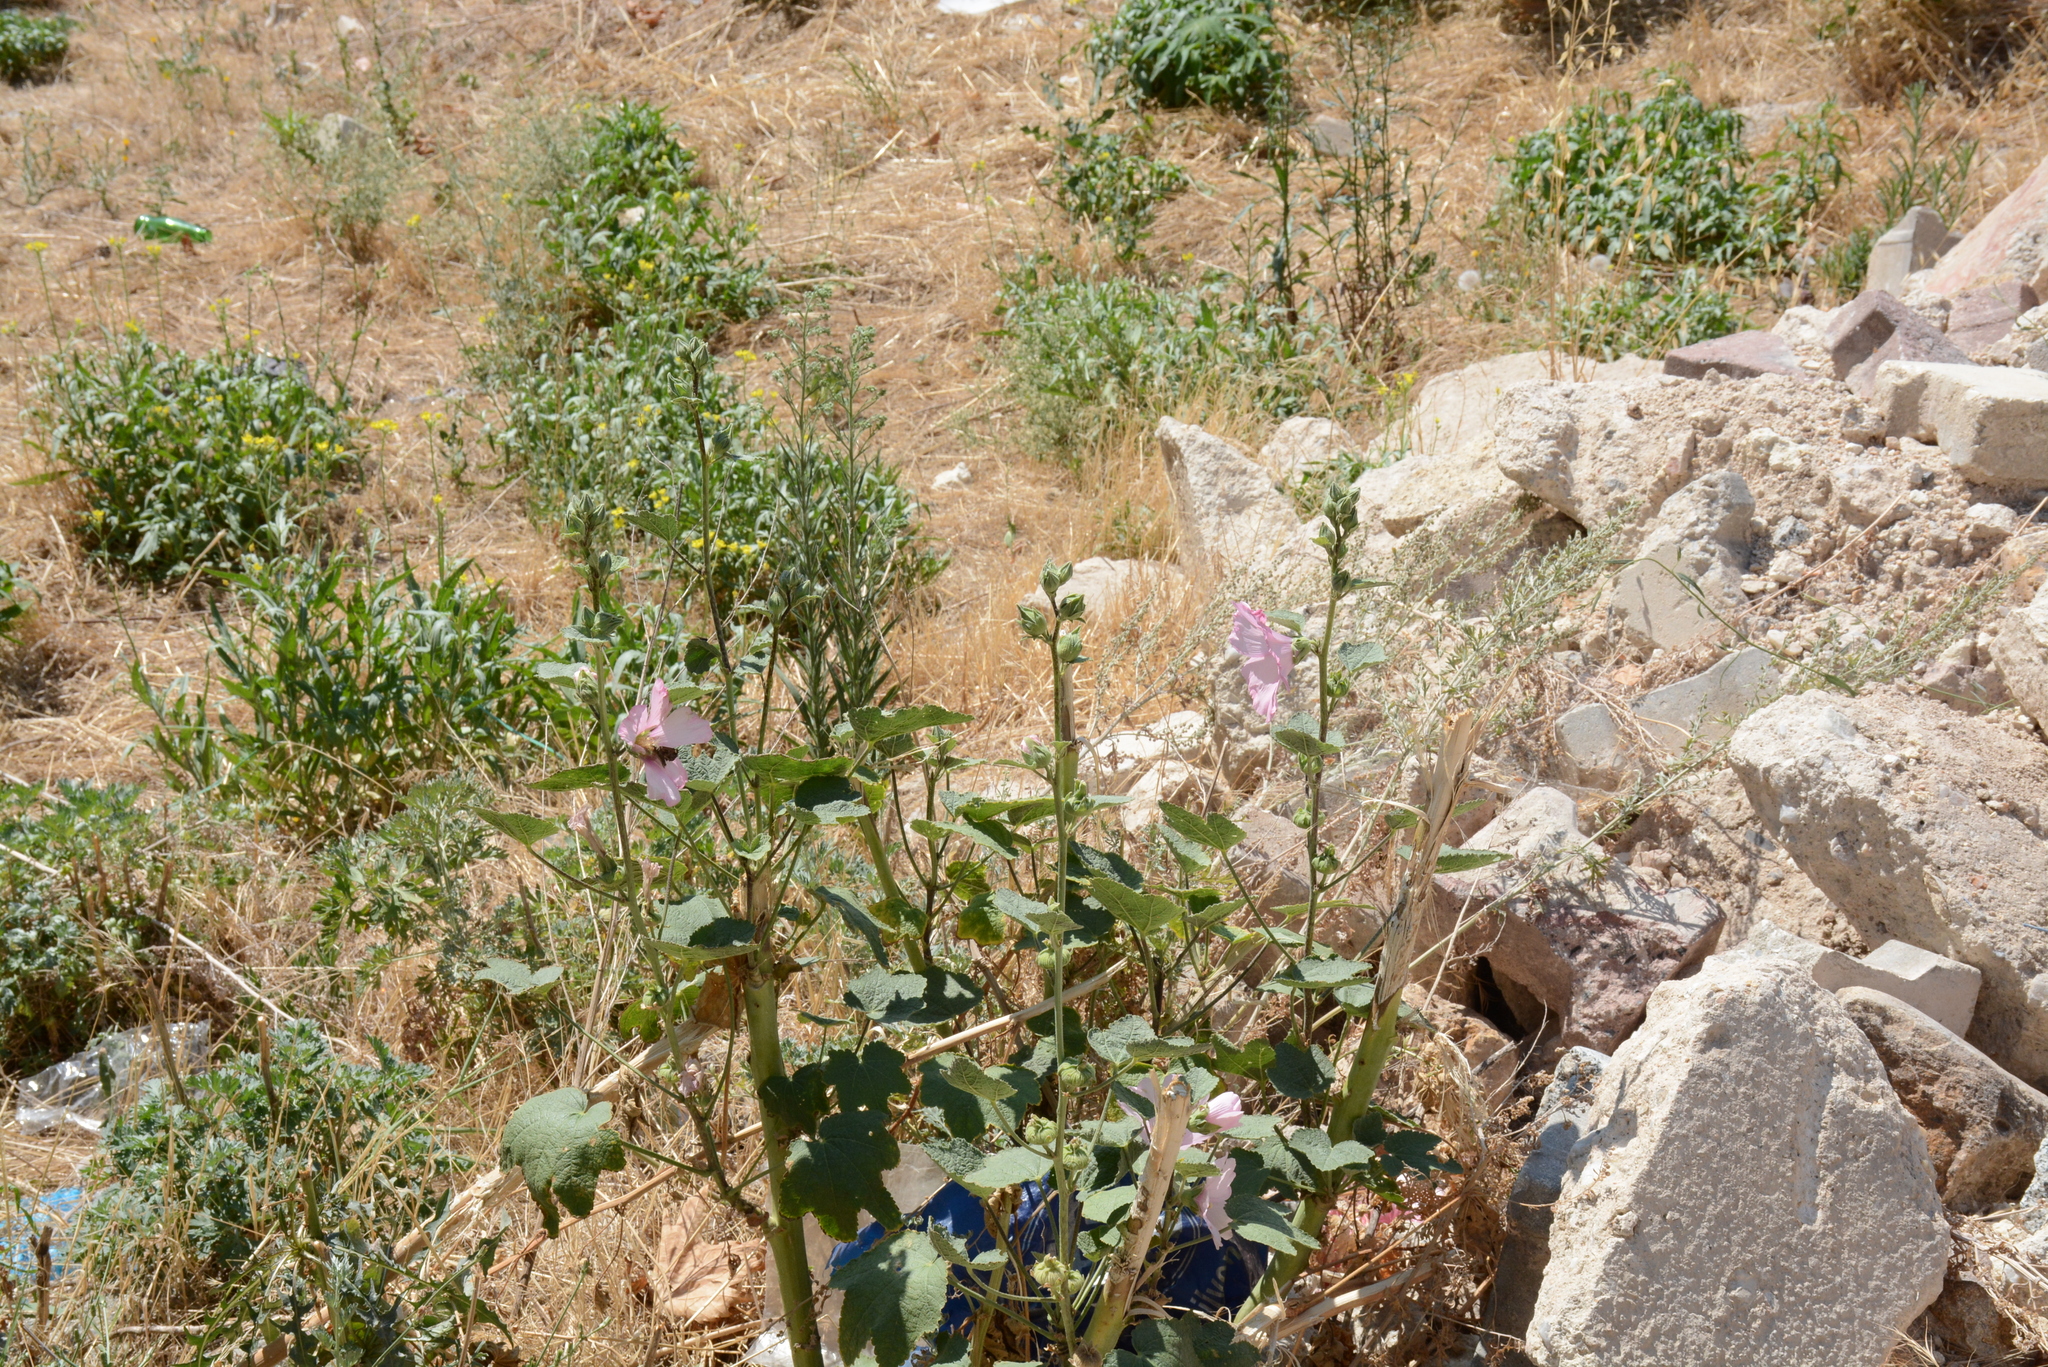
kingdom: Plantae
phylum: Tracheophyta
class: Magnoliopsida
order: Malvales
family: Malvaceae
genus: Alcea
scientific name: Alcea rosea
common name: Hollyhock
